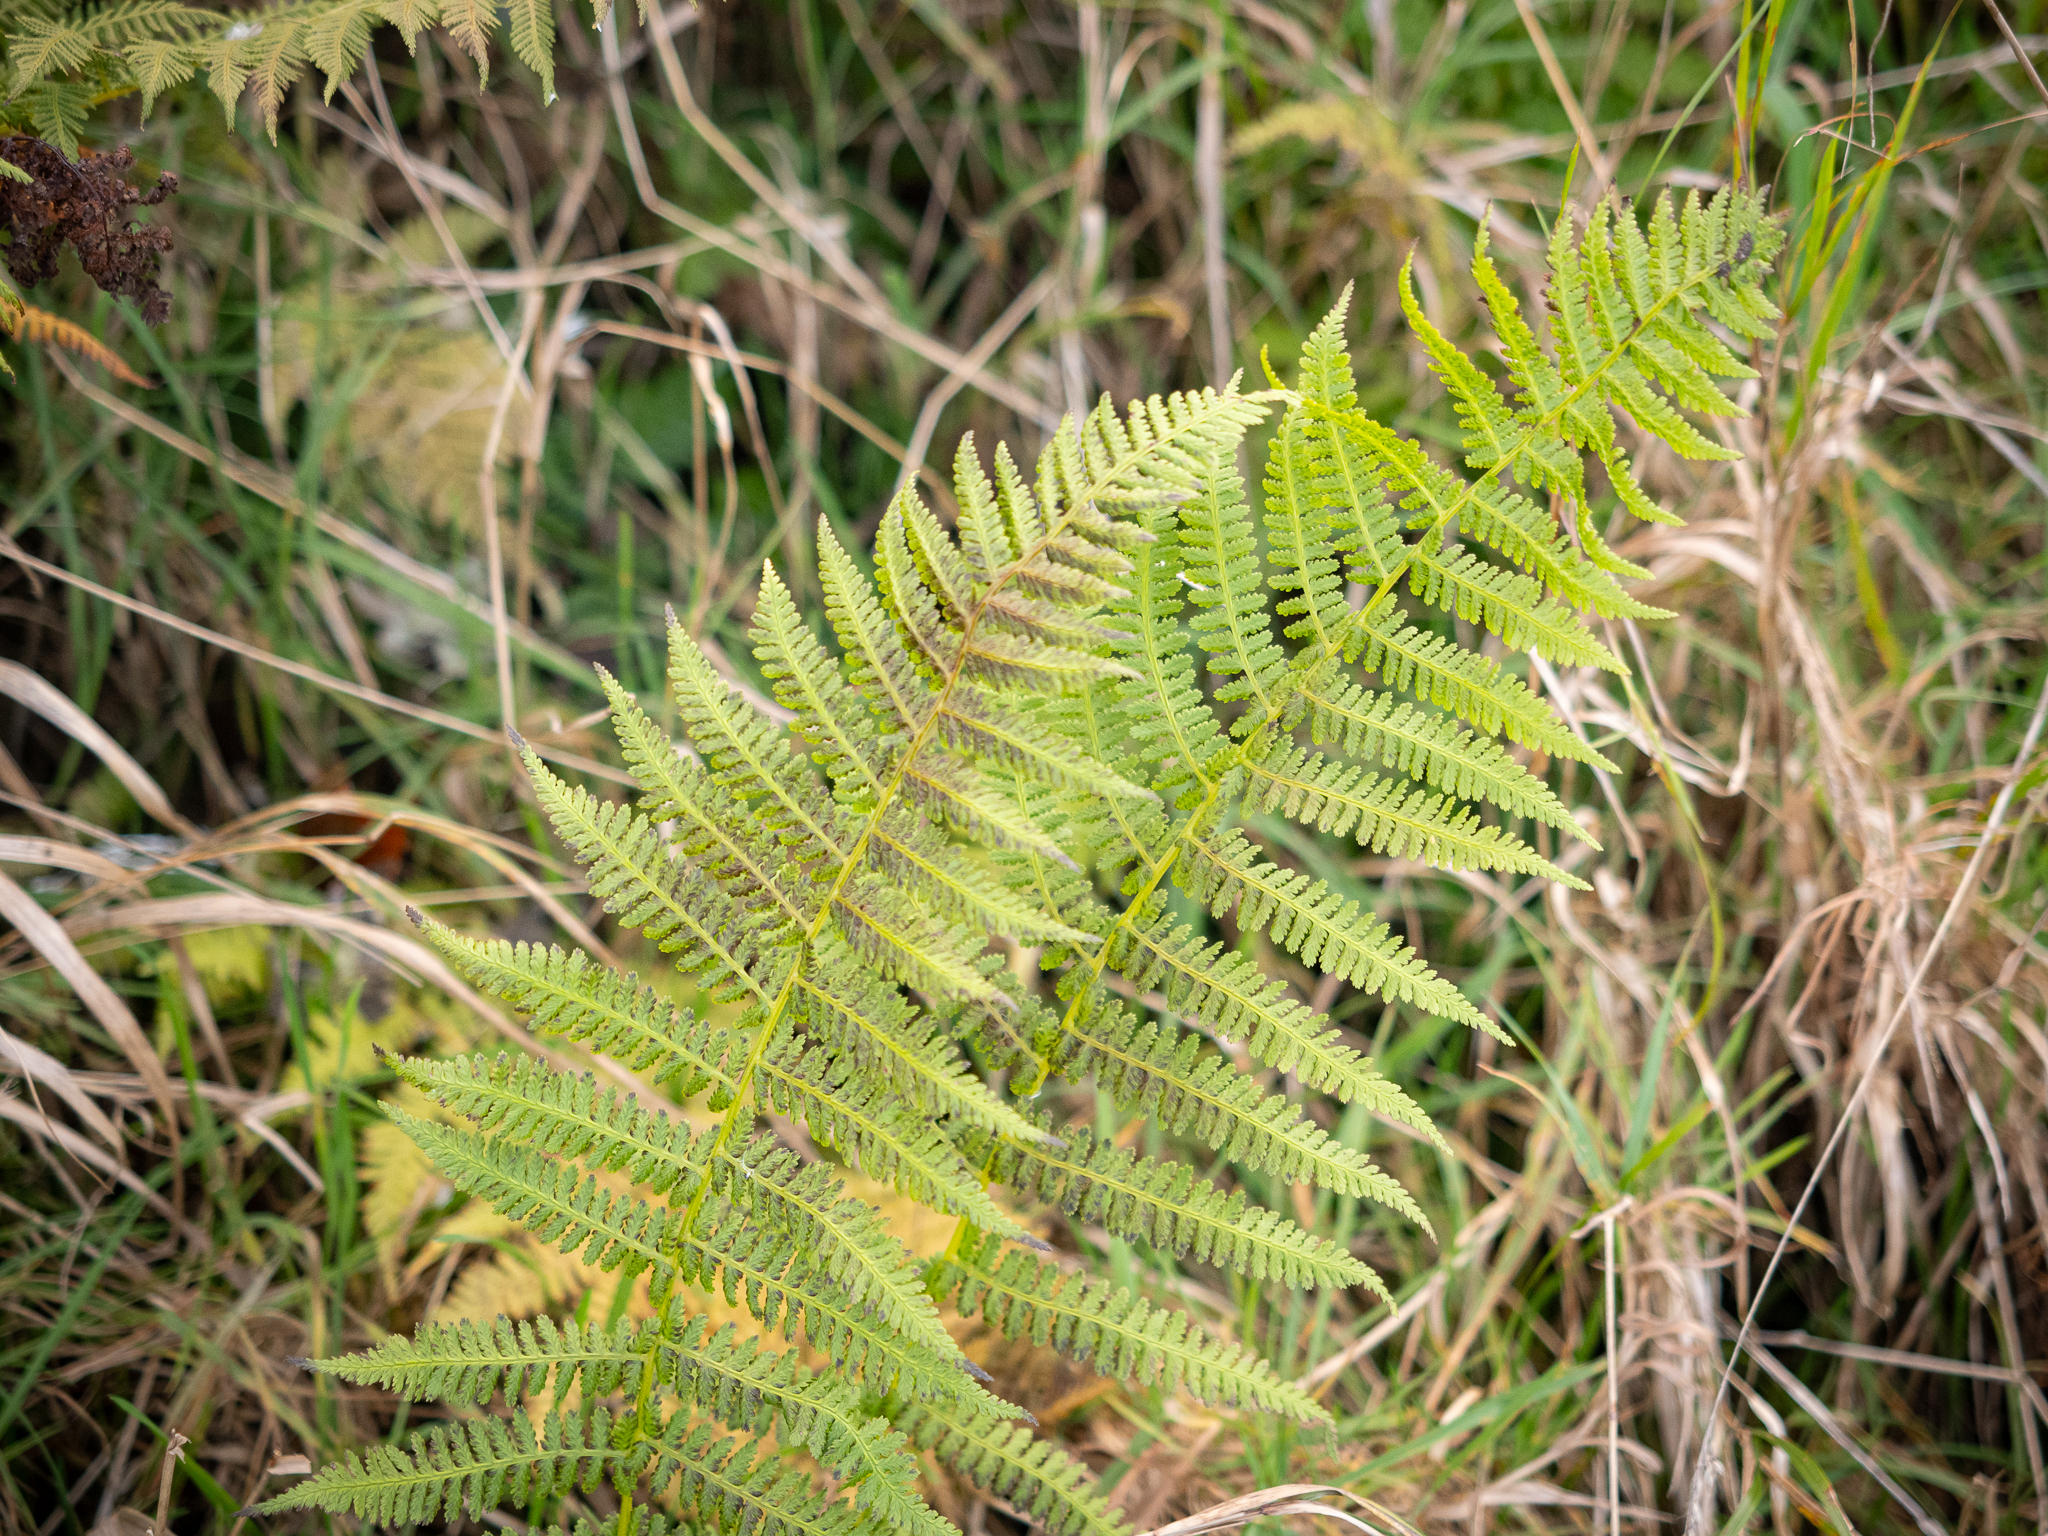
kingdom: Plantae
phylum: Tracheophyta
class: Polypodiopsida
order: Polypodiales
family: Athyriaceae
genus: Athyrium
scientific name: Athyrium filix-femina
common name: Lady fern
